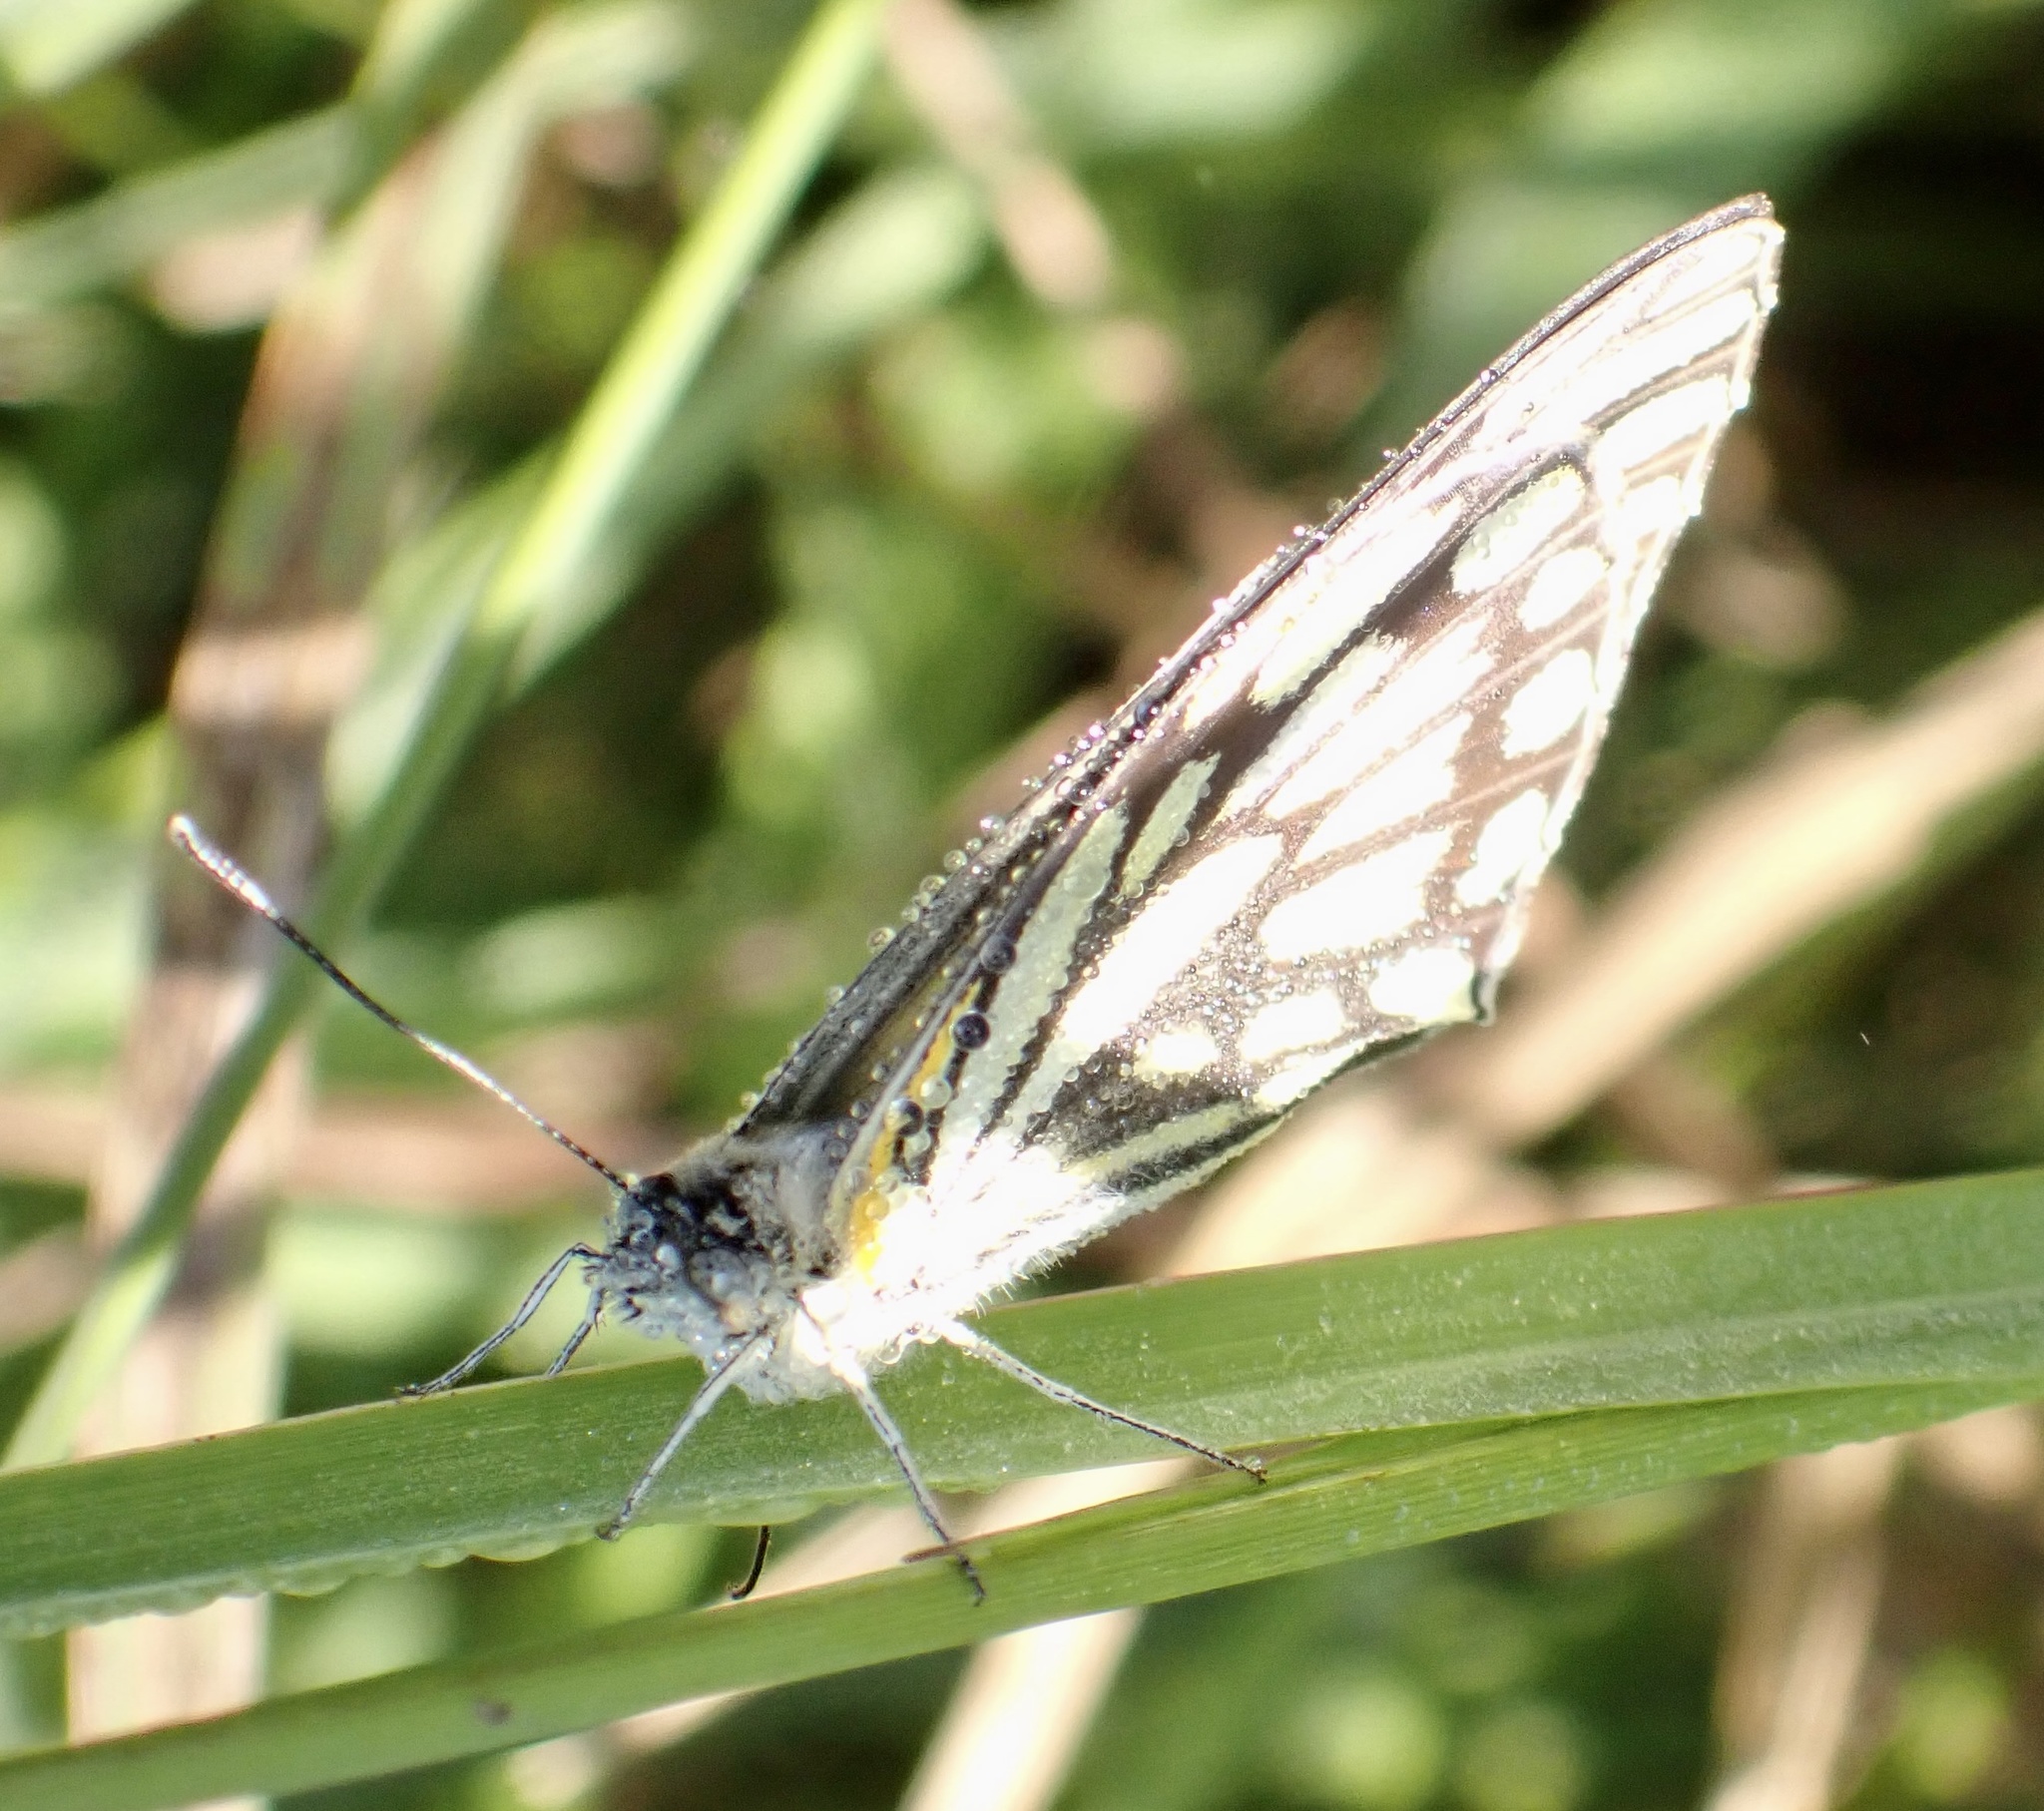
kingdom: Animalia
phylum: Arthropoda
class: Insecta
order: Lepidoptera
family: Pieridae
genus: Belenois
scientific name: Belenois aurota
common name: Brown-veined white
